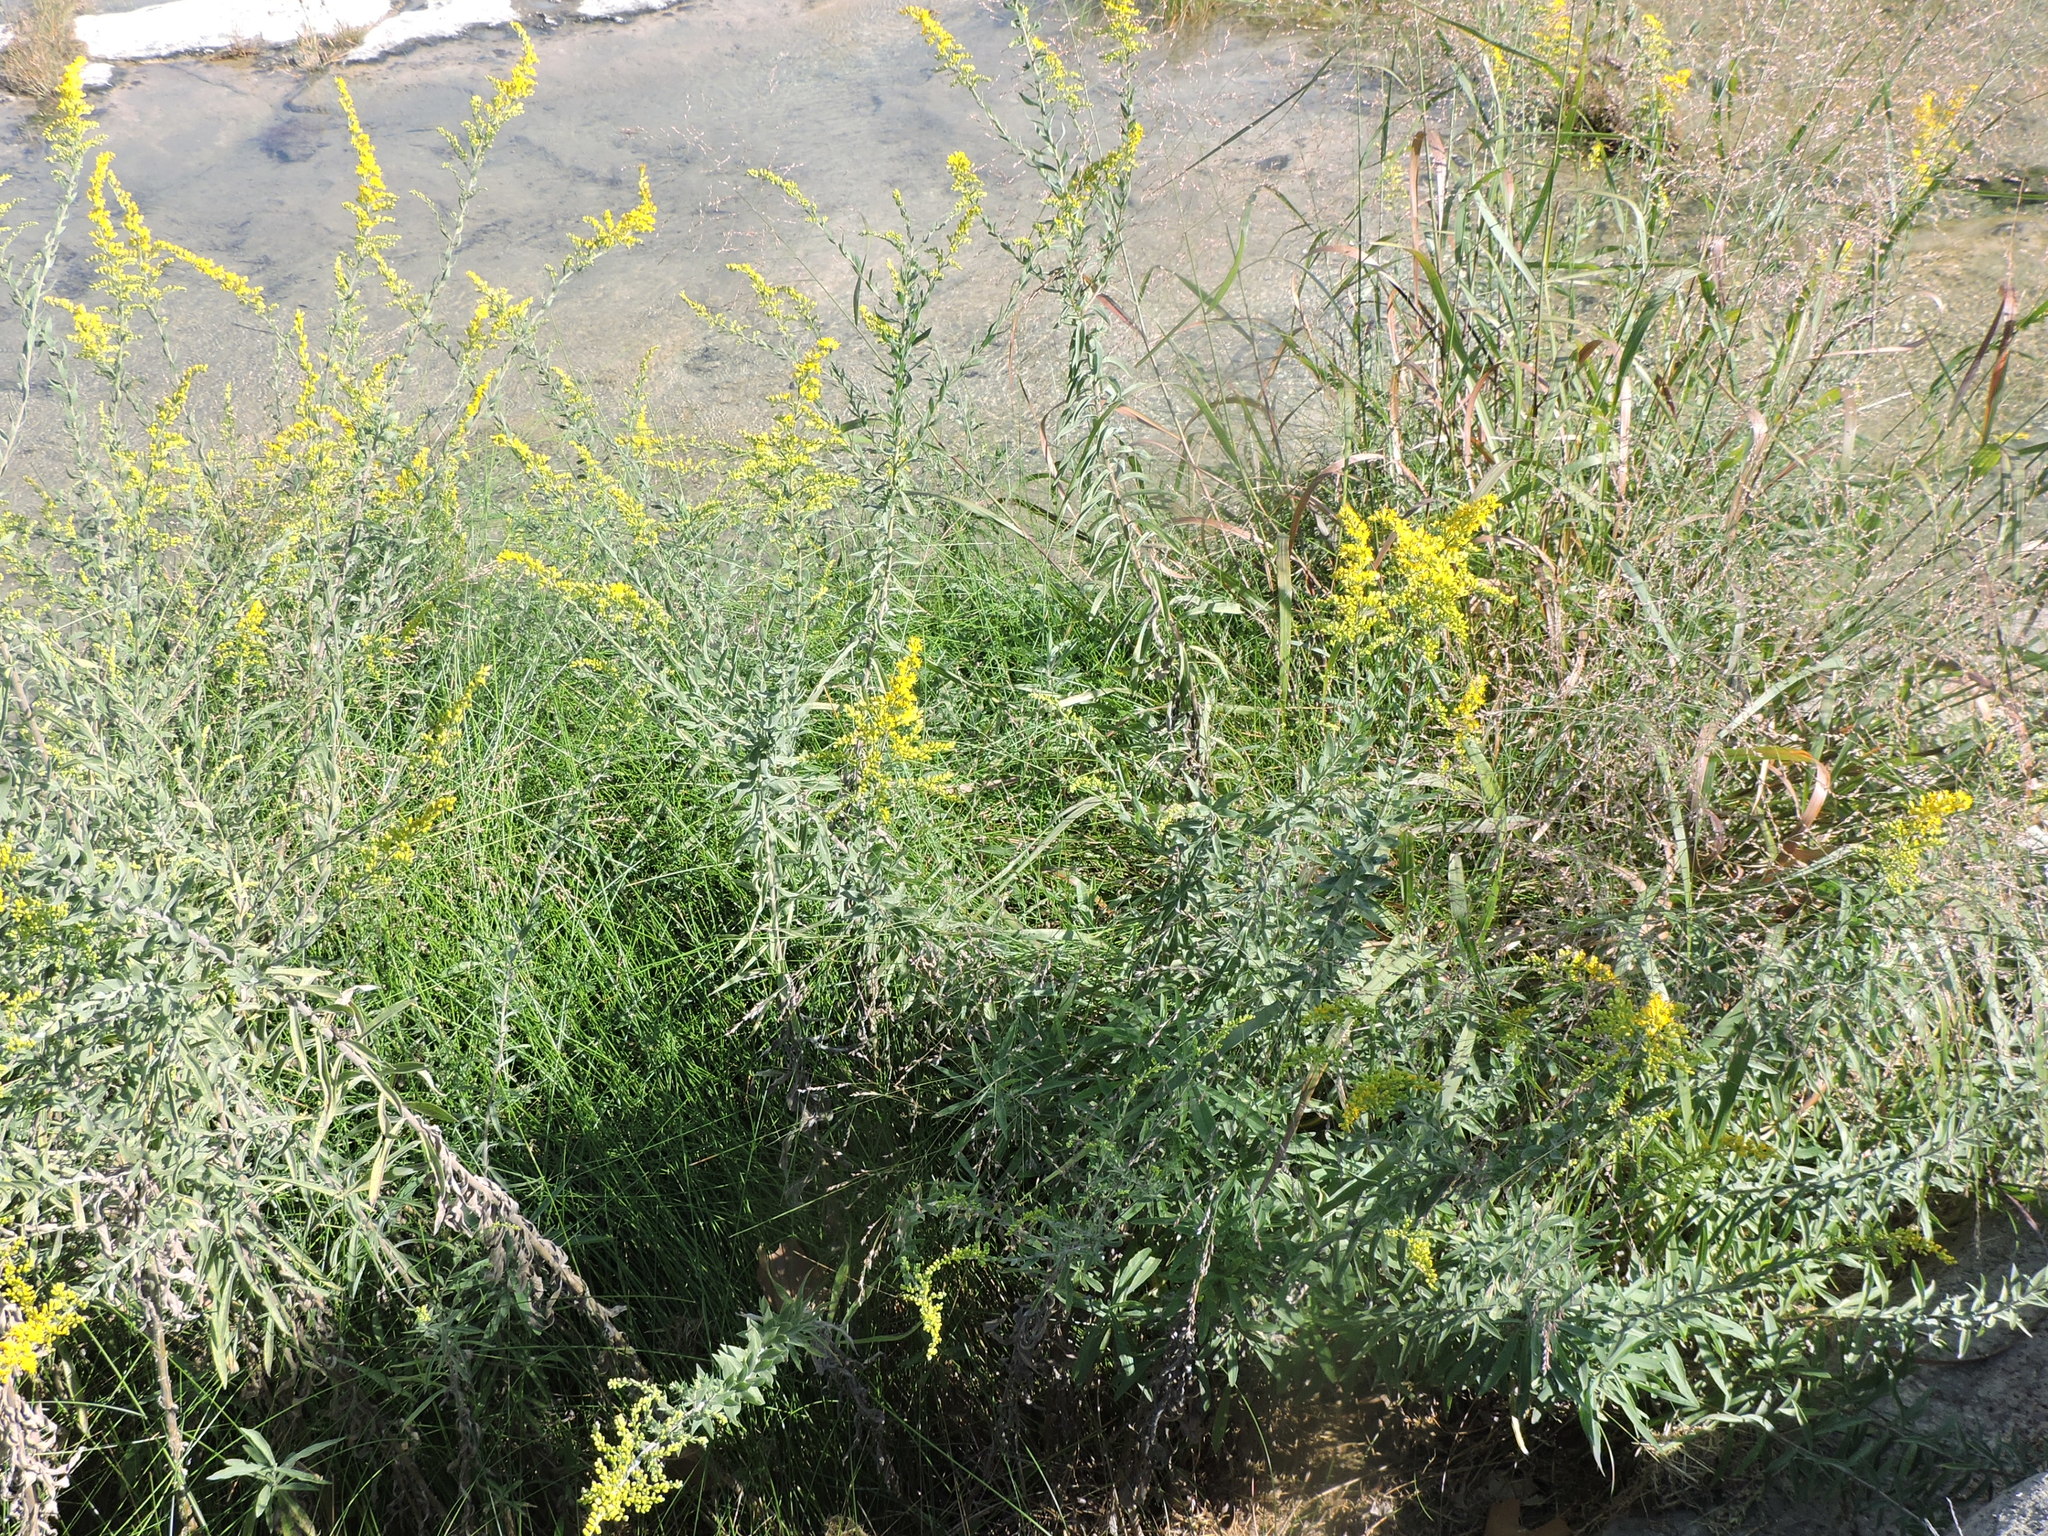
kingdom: Plantae
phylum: Tracheophyta
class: Magnoliopsida
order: Asterales
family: Asteraceae
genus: Solidago
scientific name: Solidago juliae
